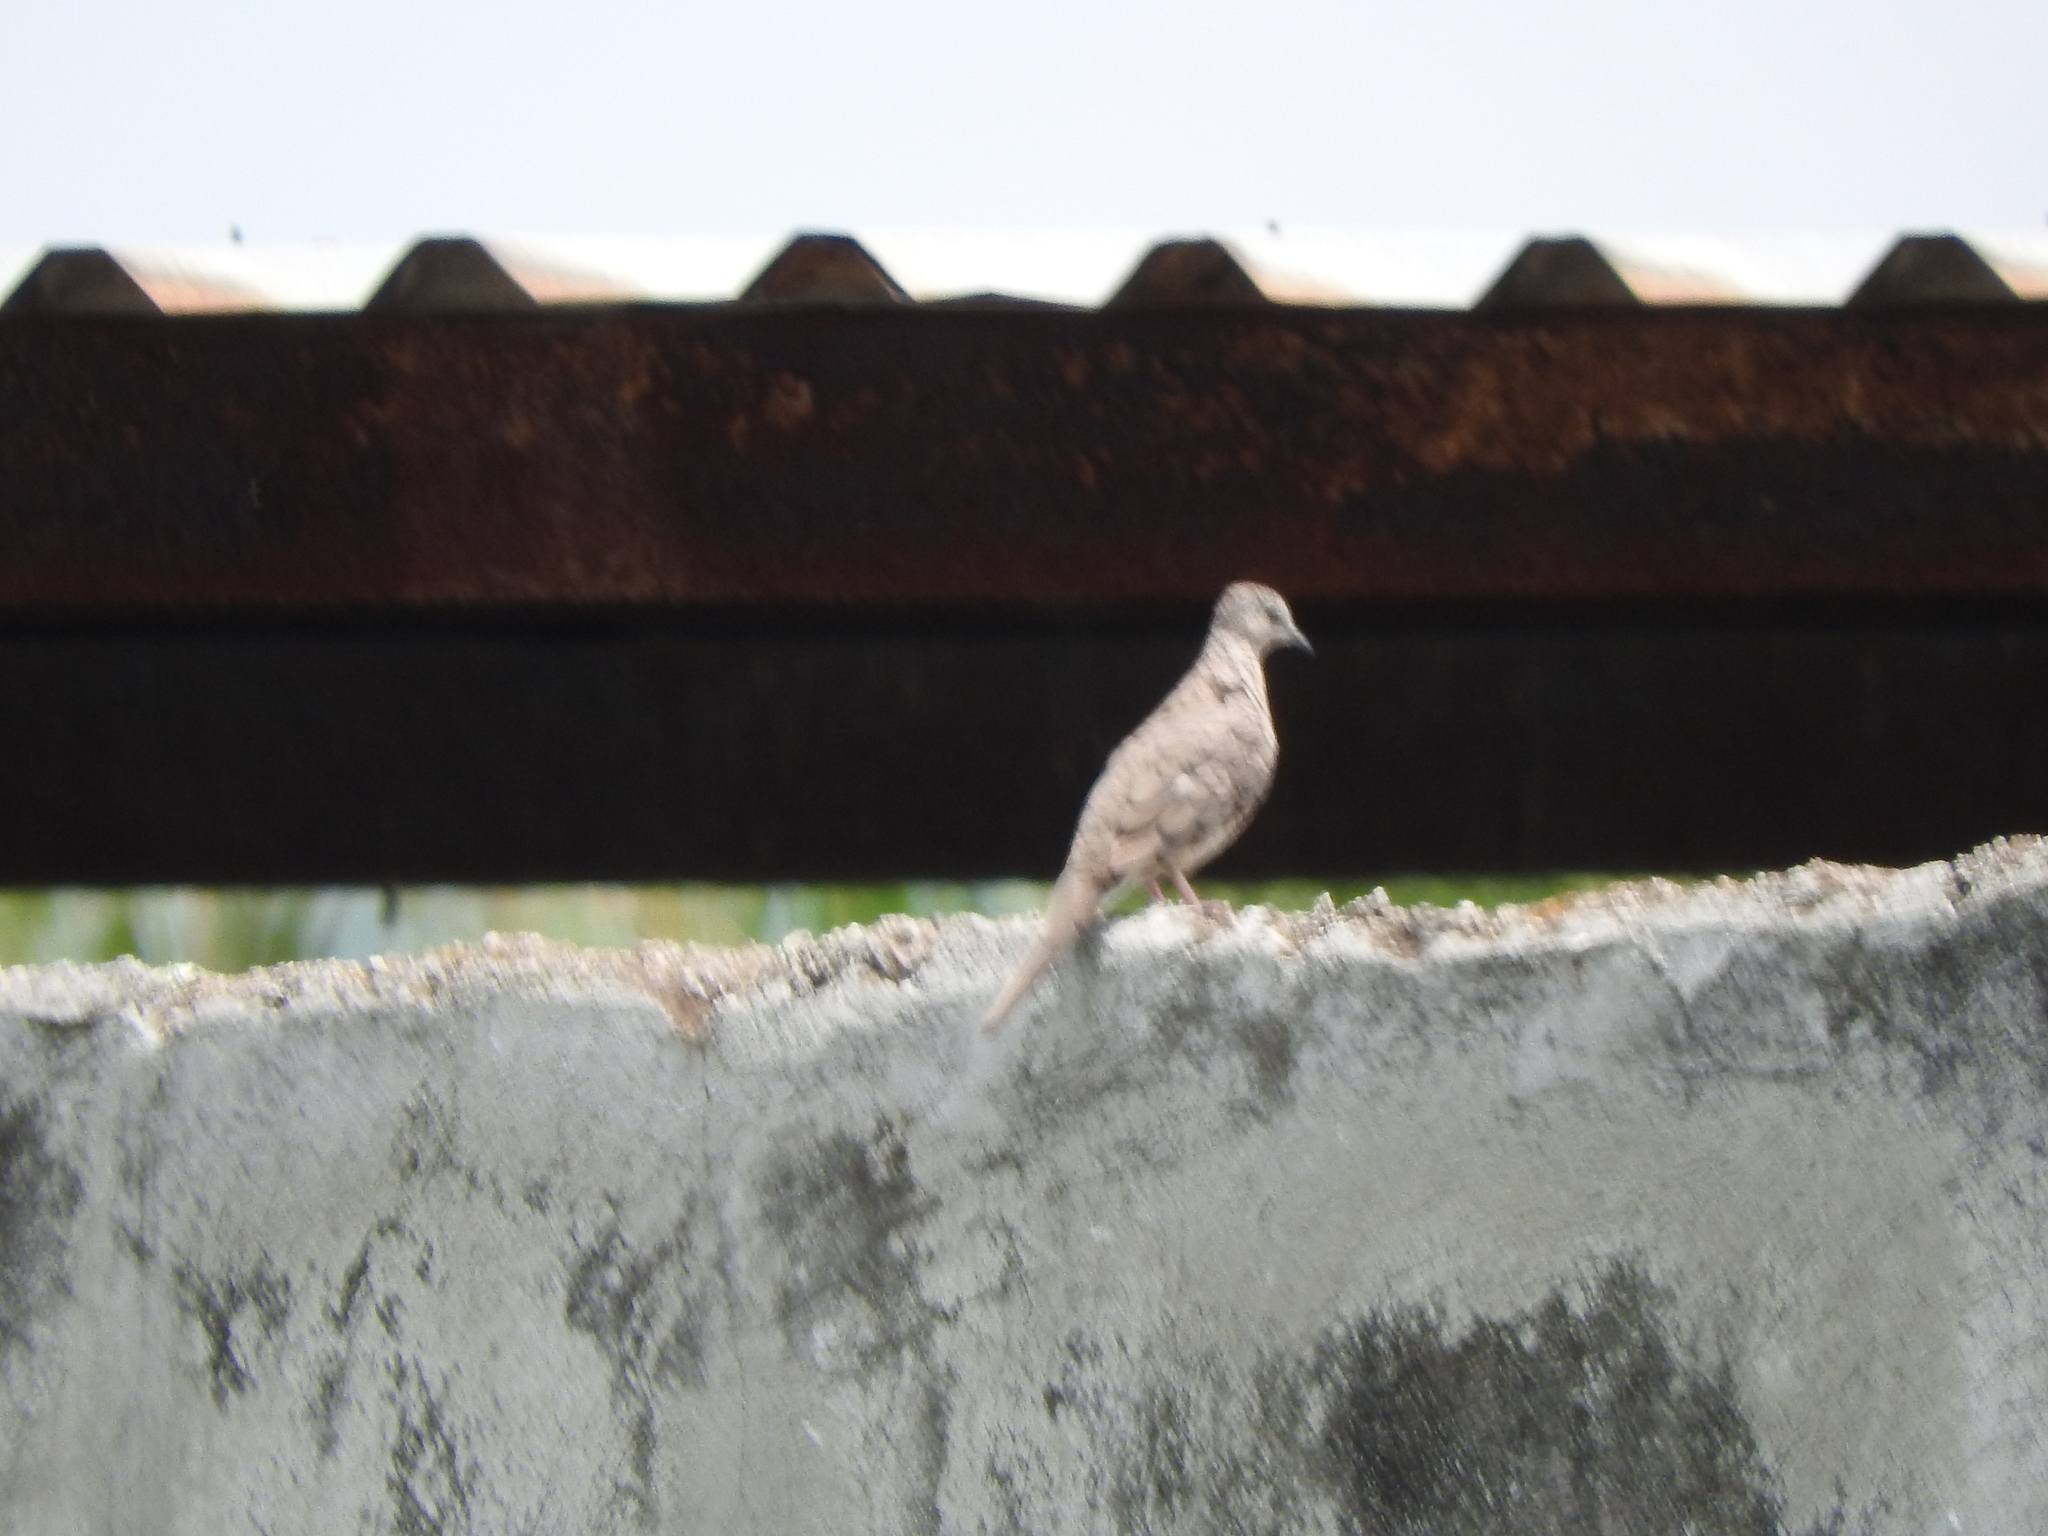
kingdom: Animalia
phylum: Chordata
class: Aves
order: Columbiformes
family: Columbidae
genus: Columbina
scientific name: Columbina inca
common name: Inca dove
